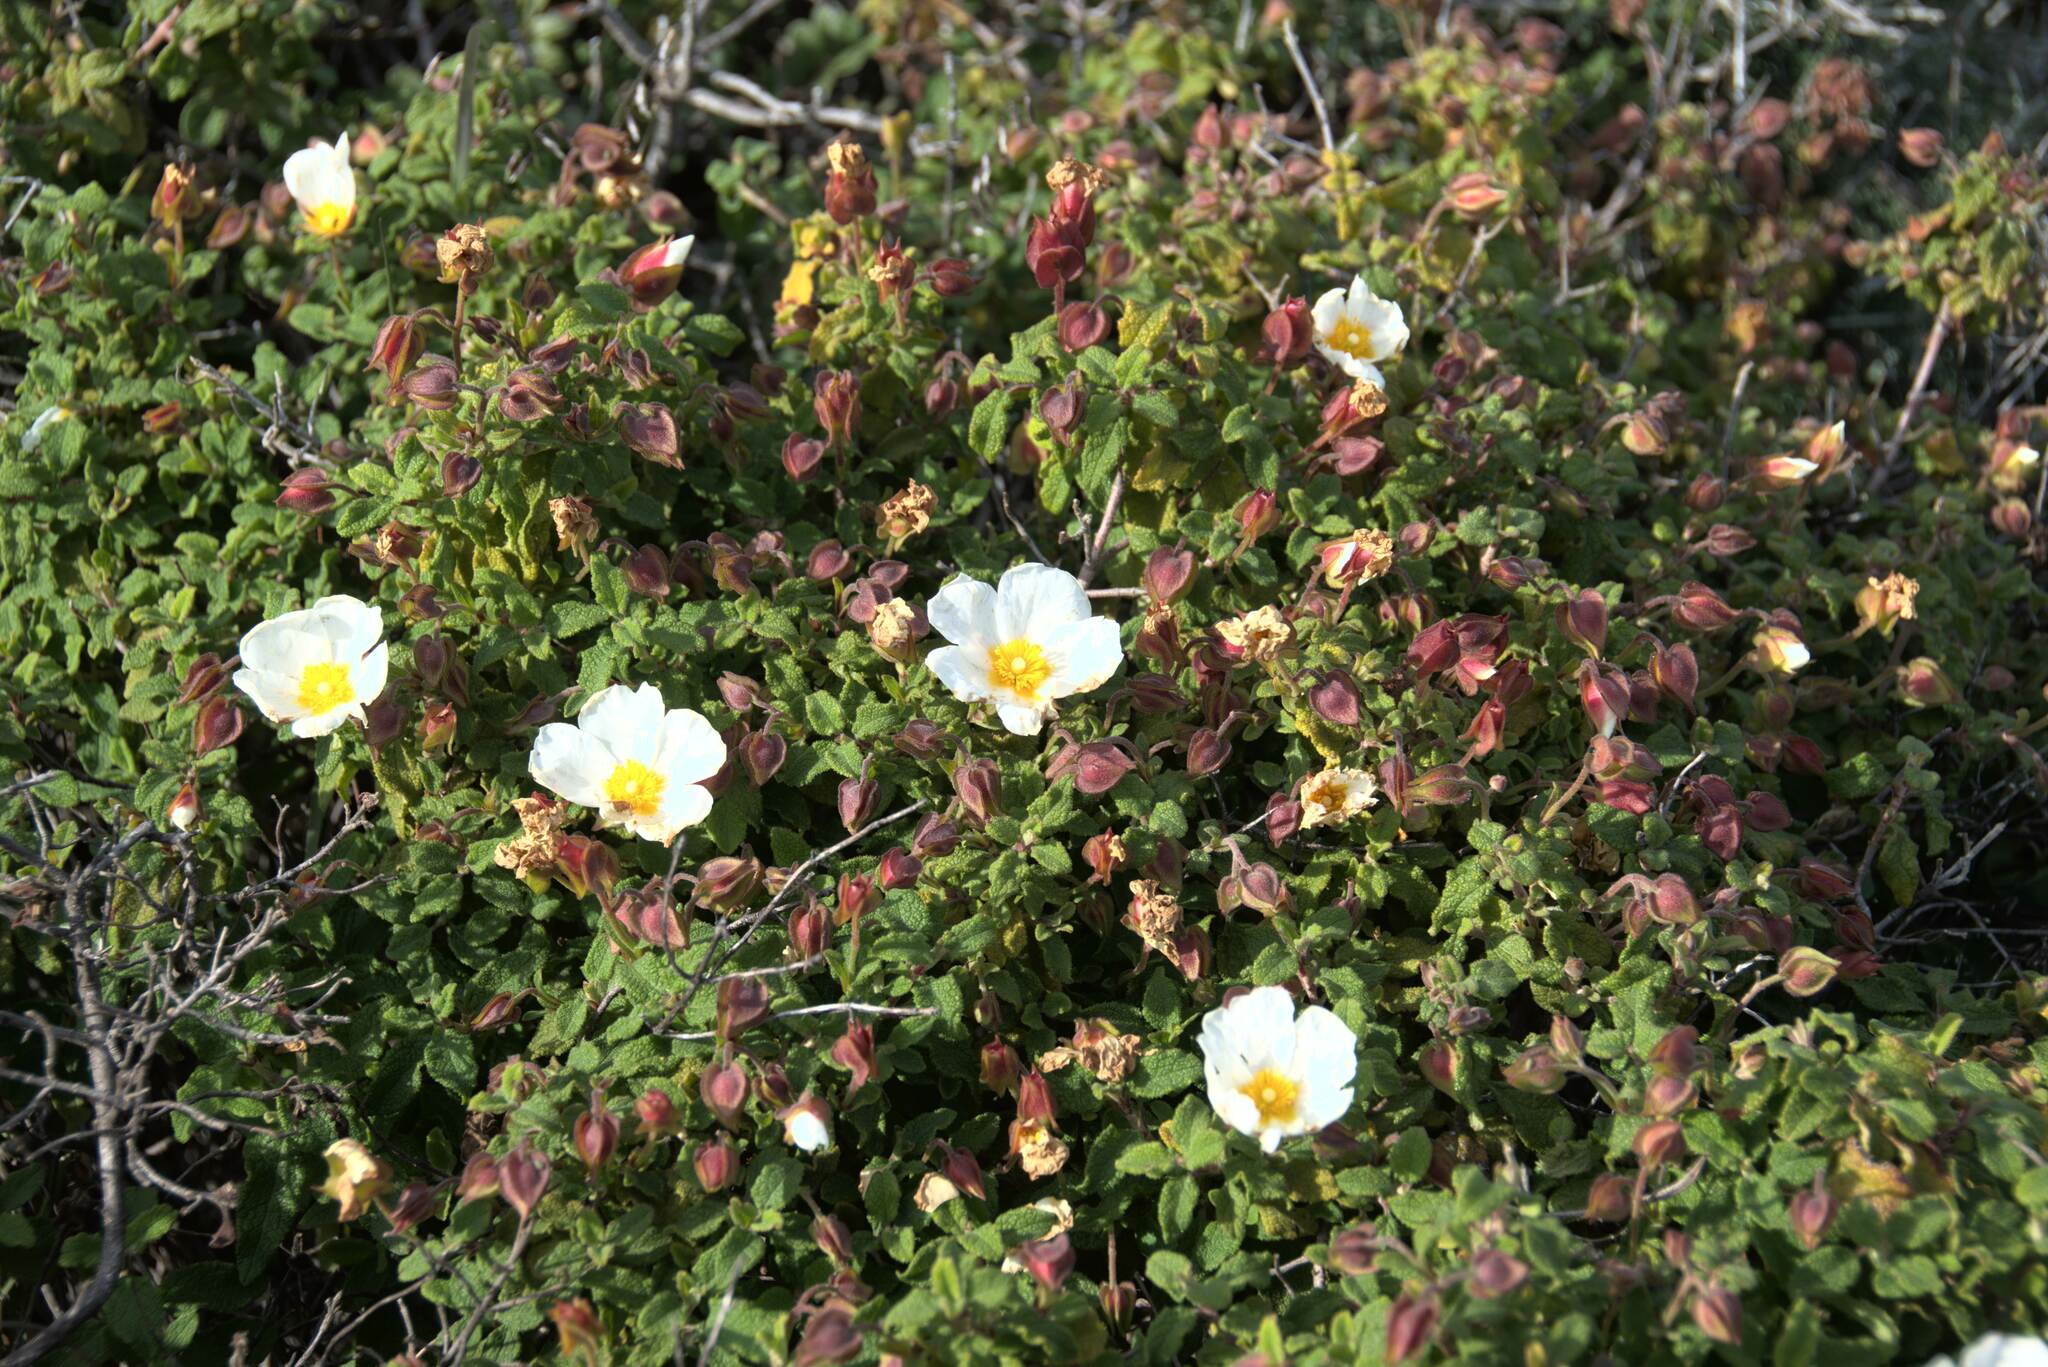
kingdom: Plantae
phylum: Tracheophyta
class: Magnoliopsida
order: Malvales
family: Cistaceae
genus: Cistus
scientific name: Cistus salviifolius
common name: Salvia cistus
